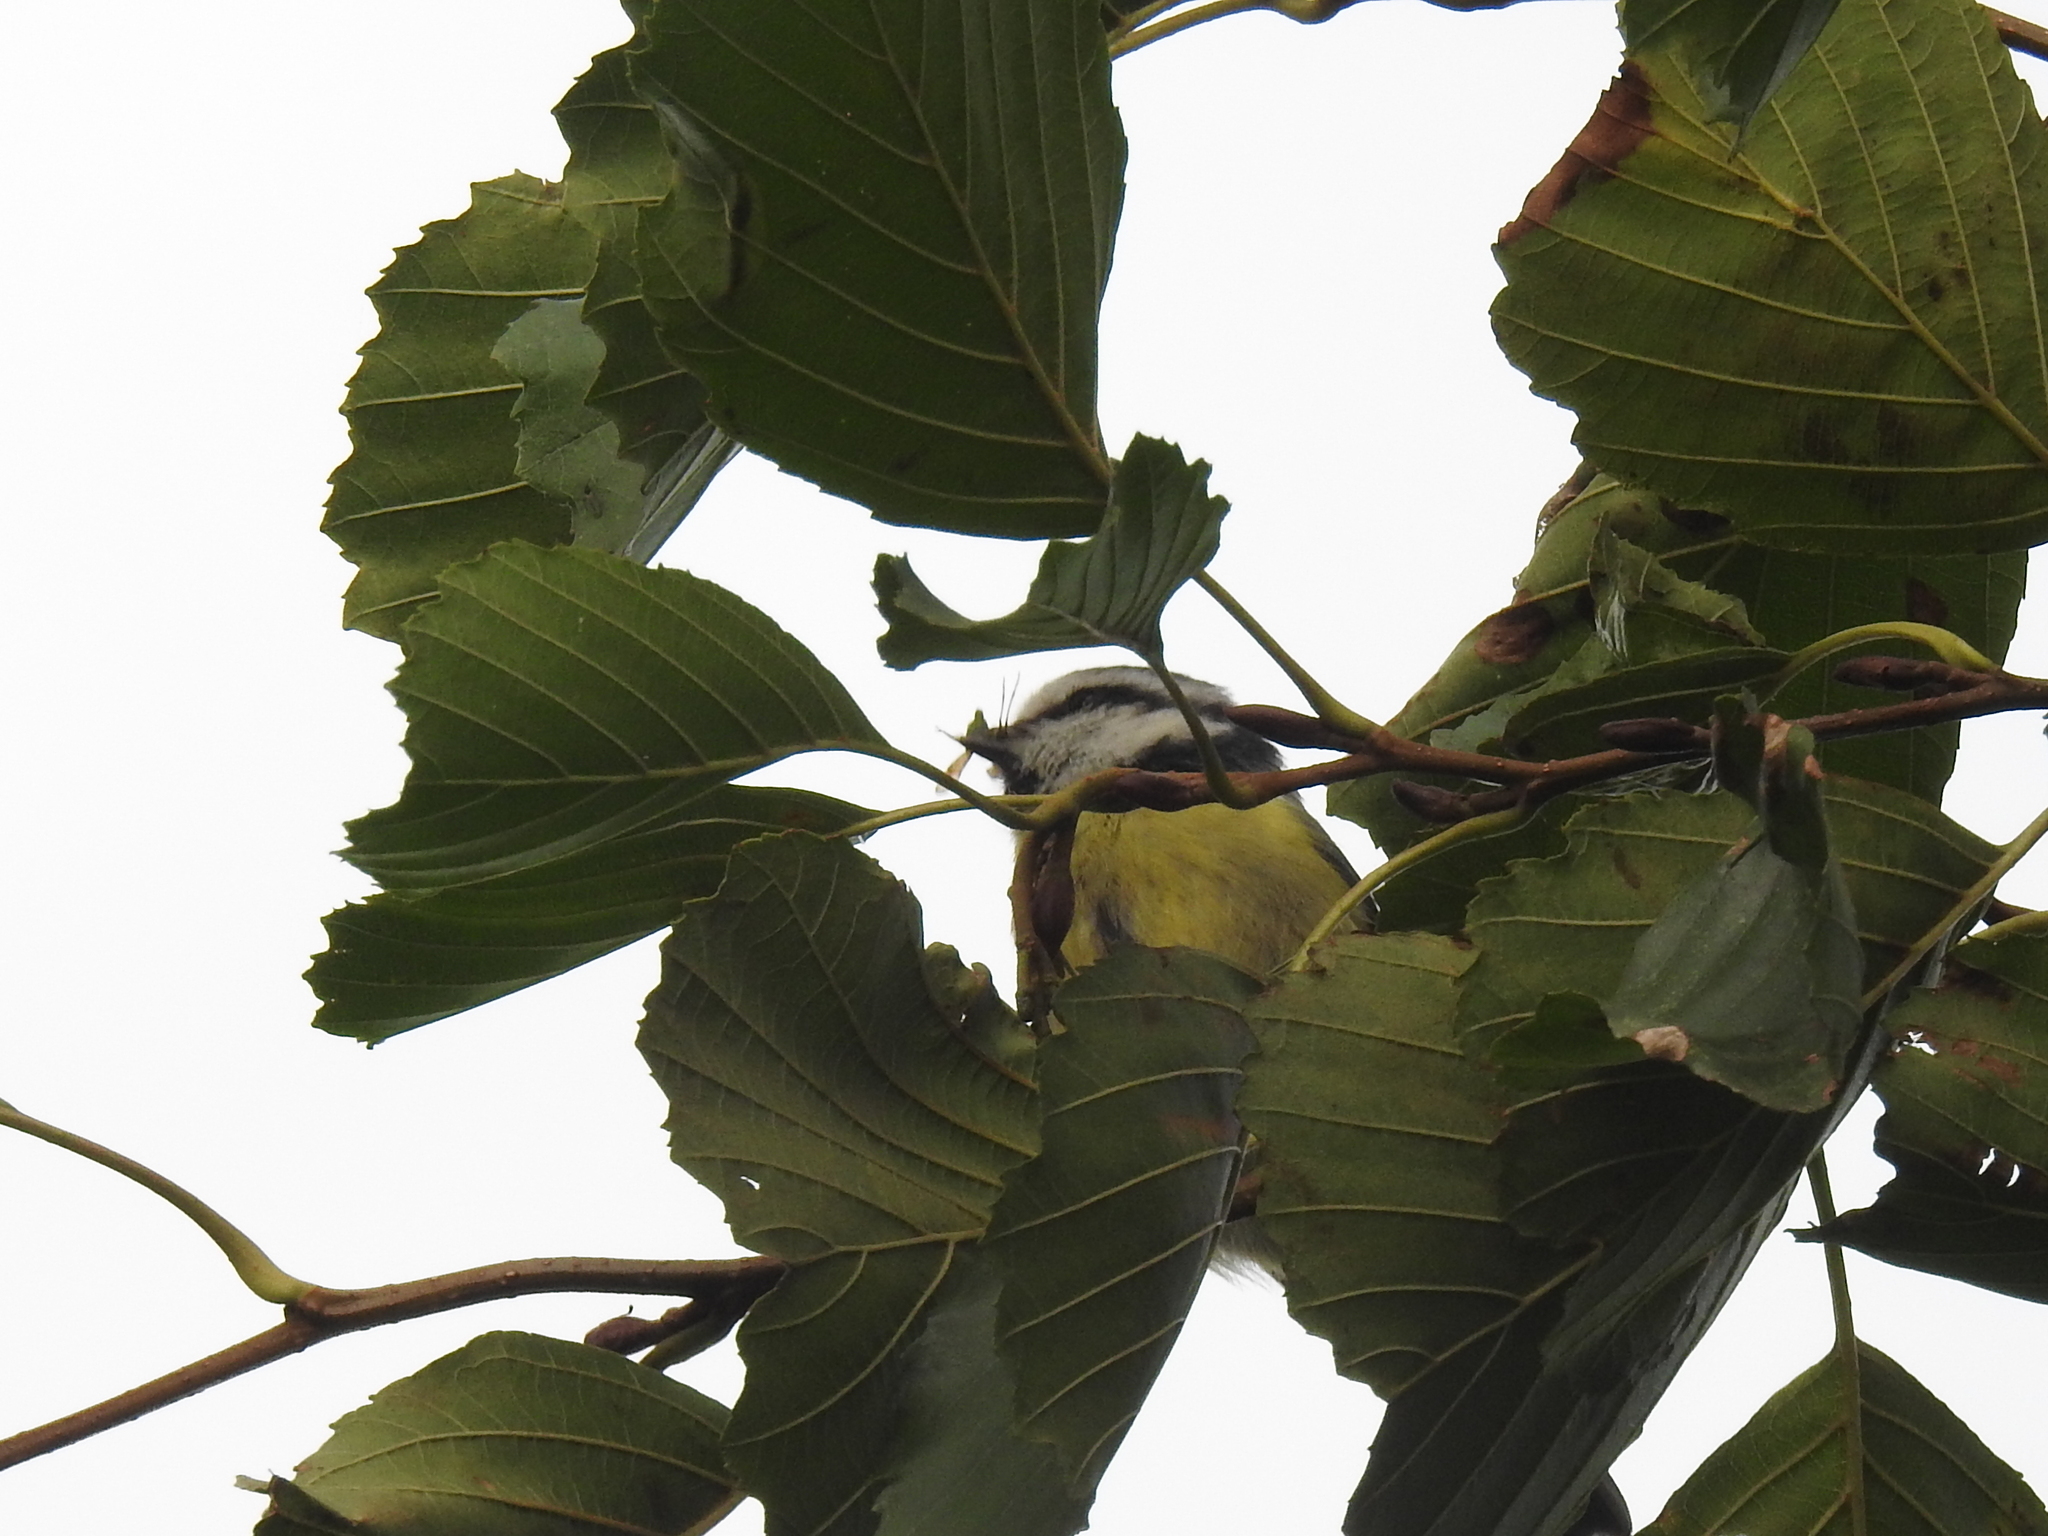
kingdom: Animalia
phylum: Chordata
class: Aves
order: Passeriformes
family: Paridae
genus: Cyanistes
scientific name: Cyanistes caeruleus
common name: Eurasian blue tit
